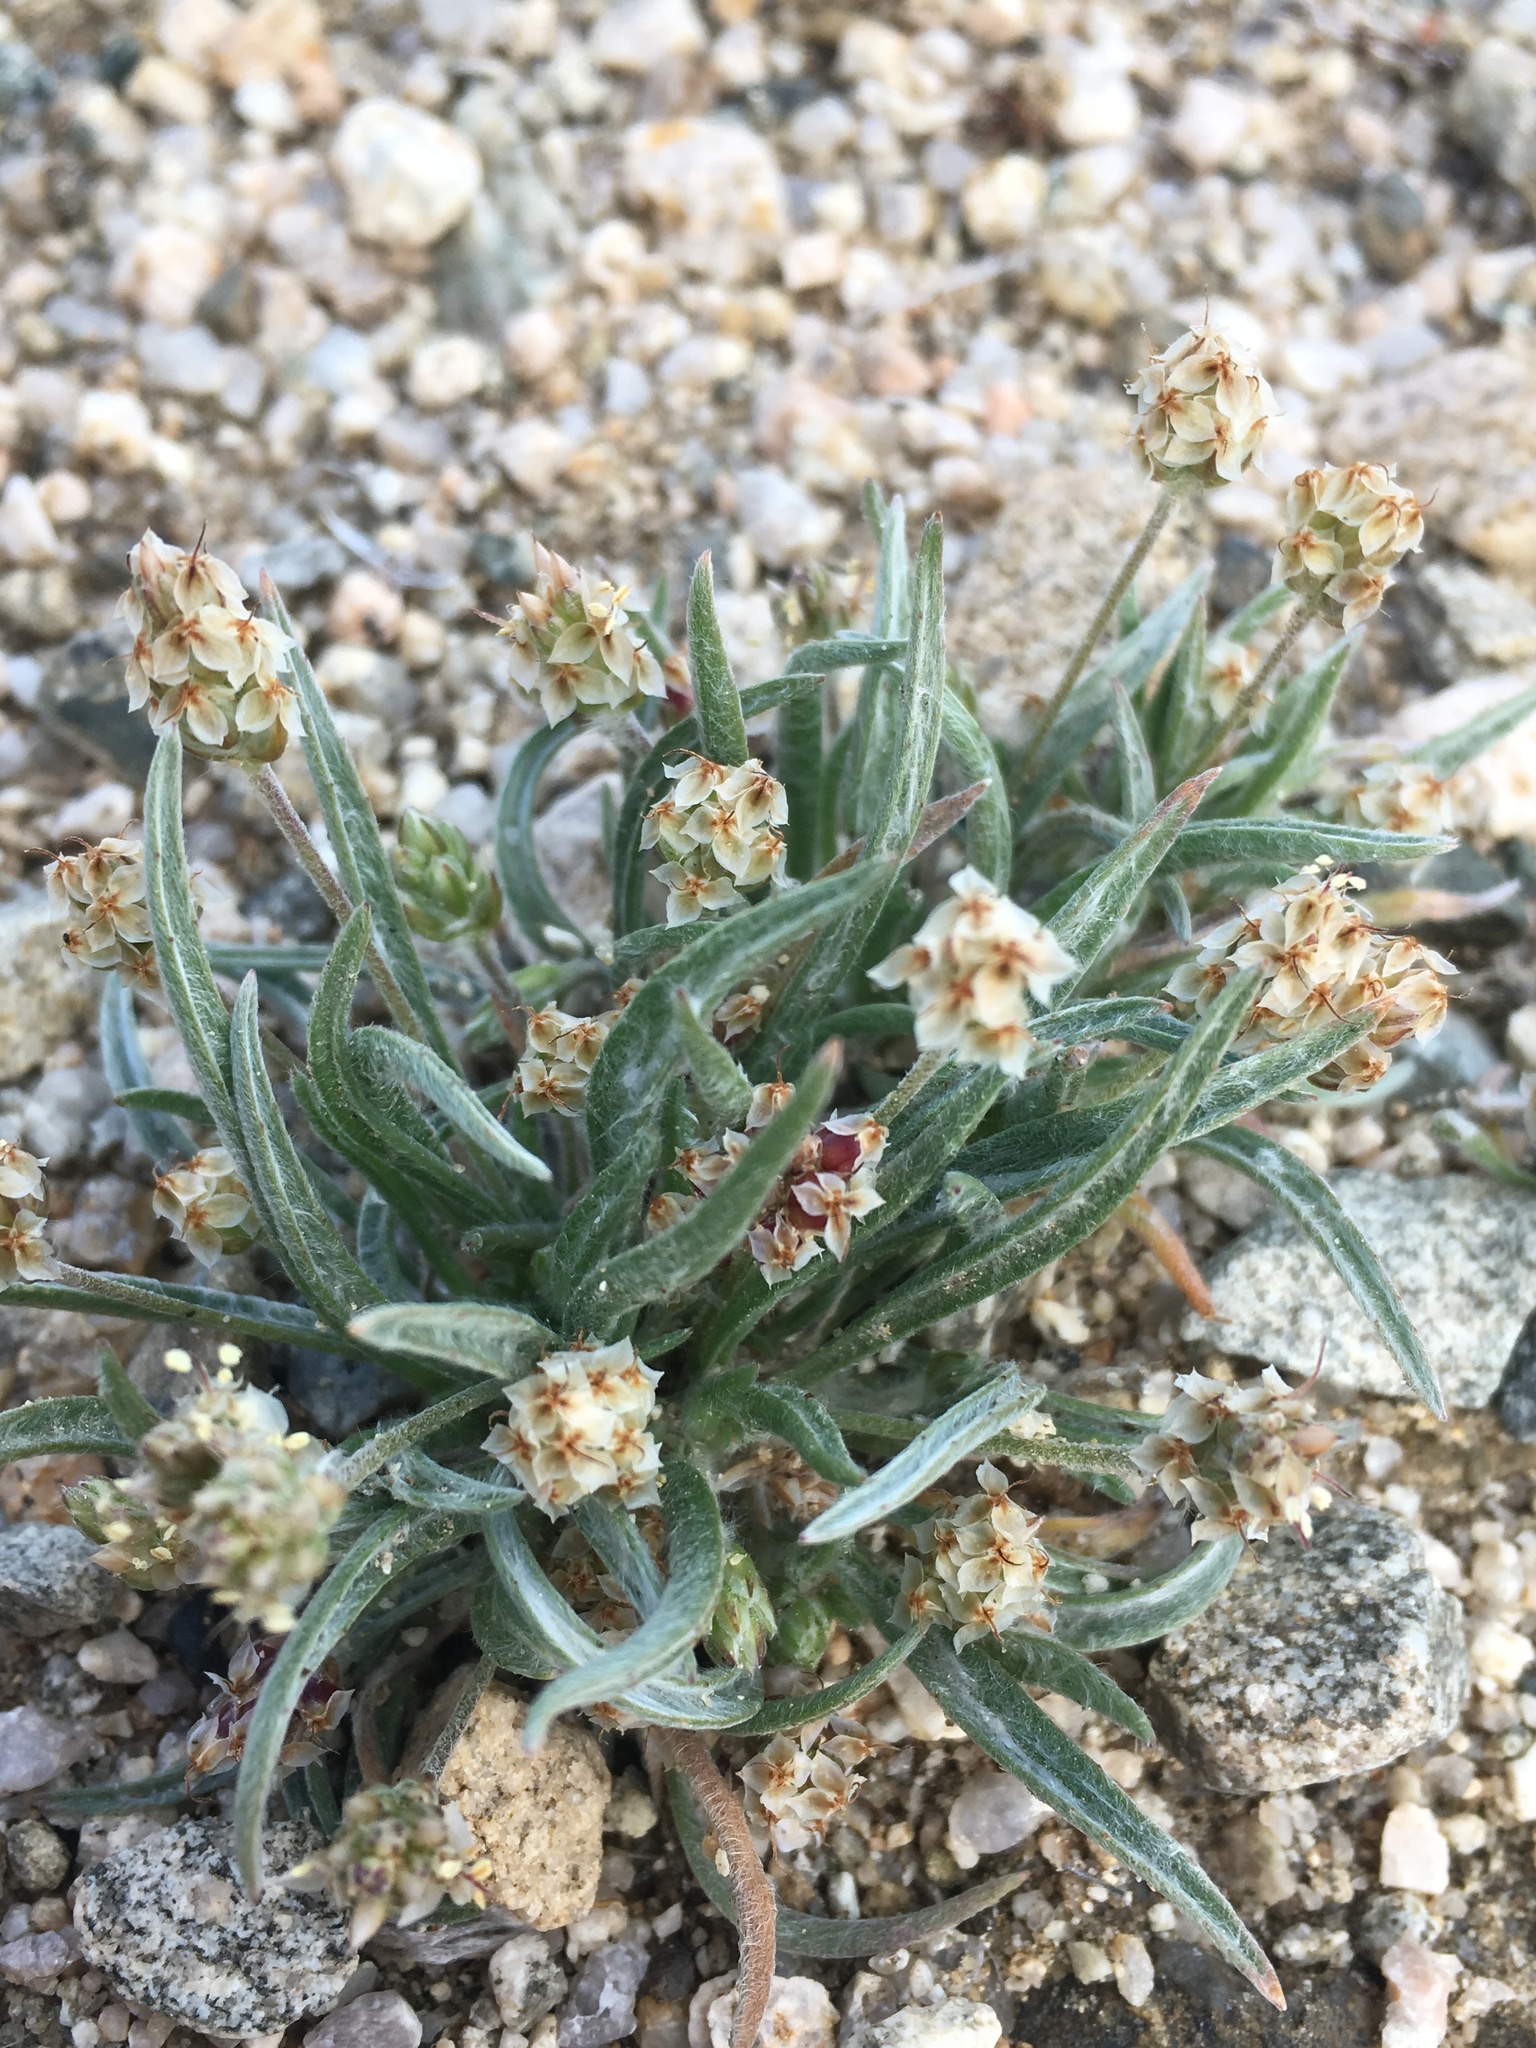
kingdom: Plantae
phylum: Tracheophyta
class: Magnoliopsida
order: Lamiales
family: Plantaginaceae
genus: Plantago
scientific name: Plantago ovata
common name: Blond plantain
